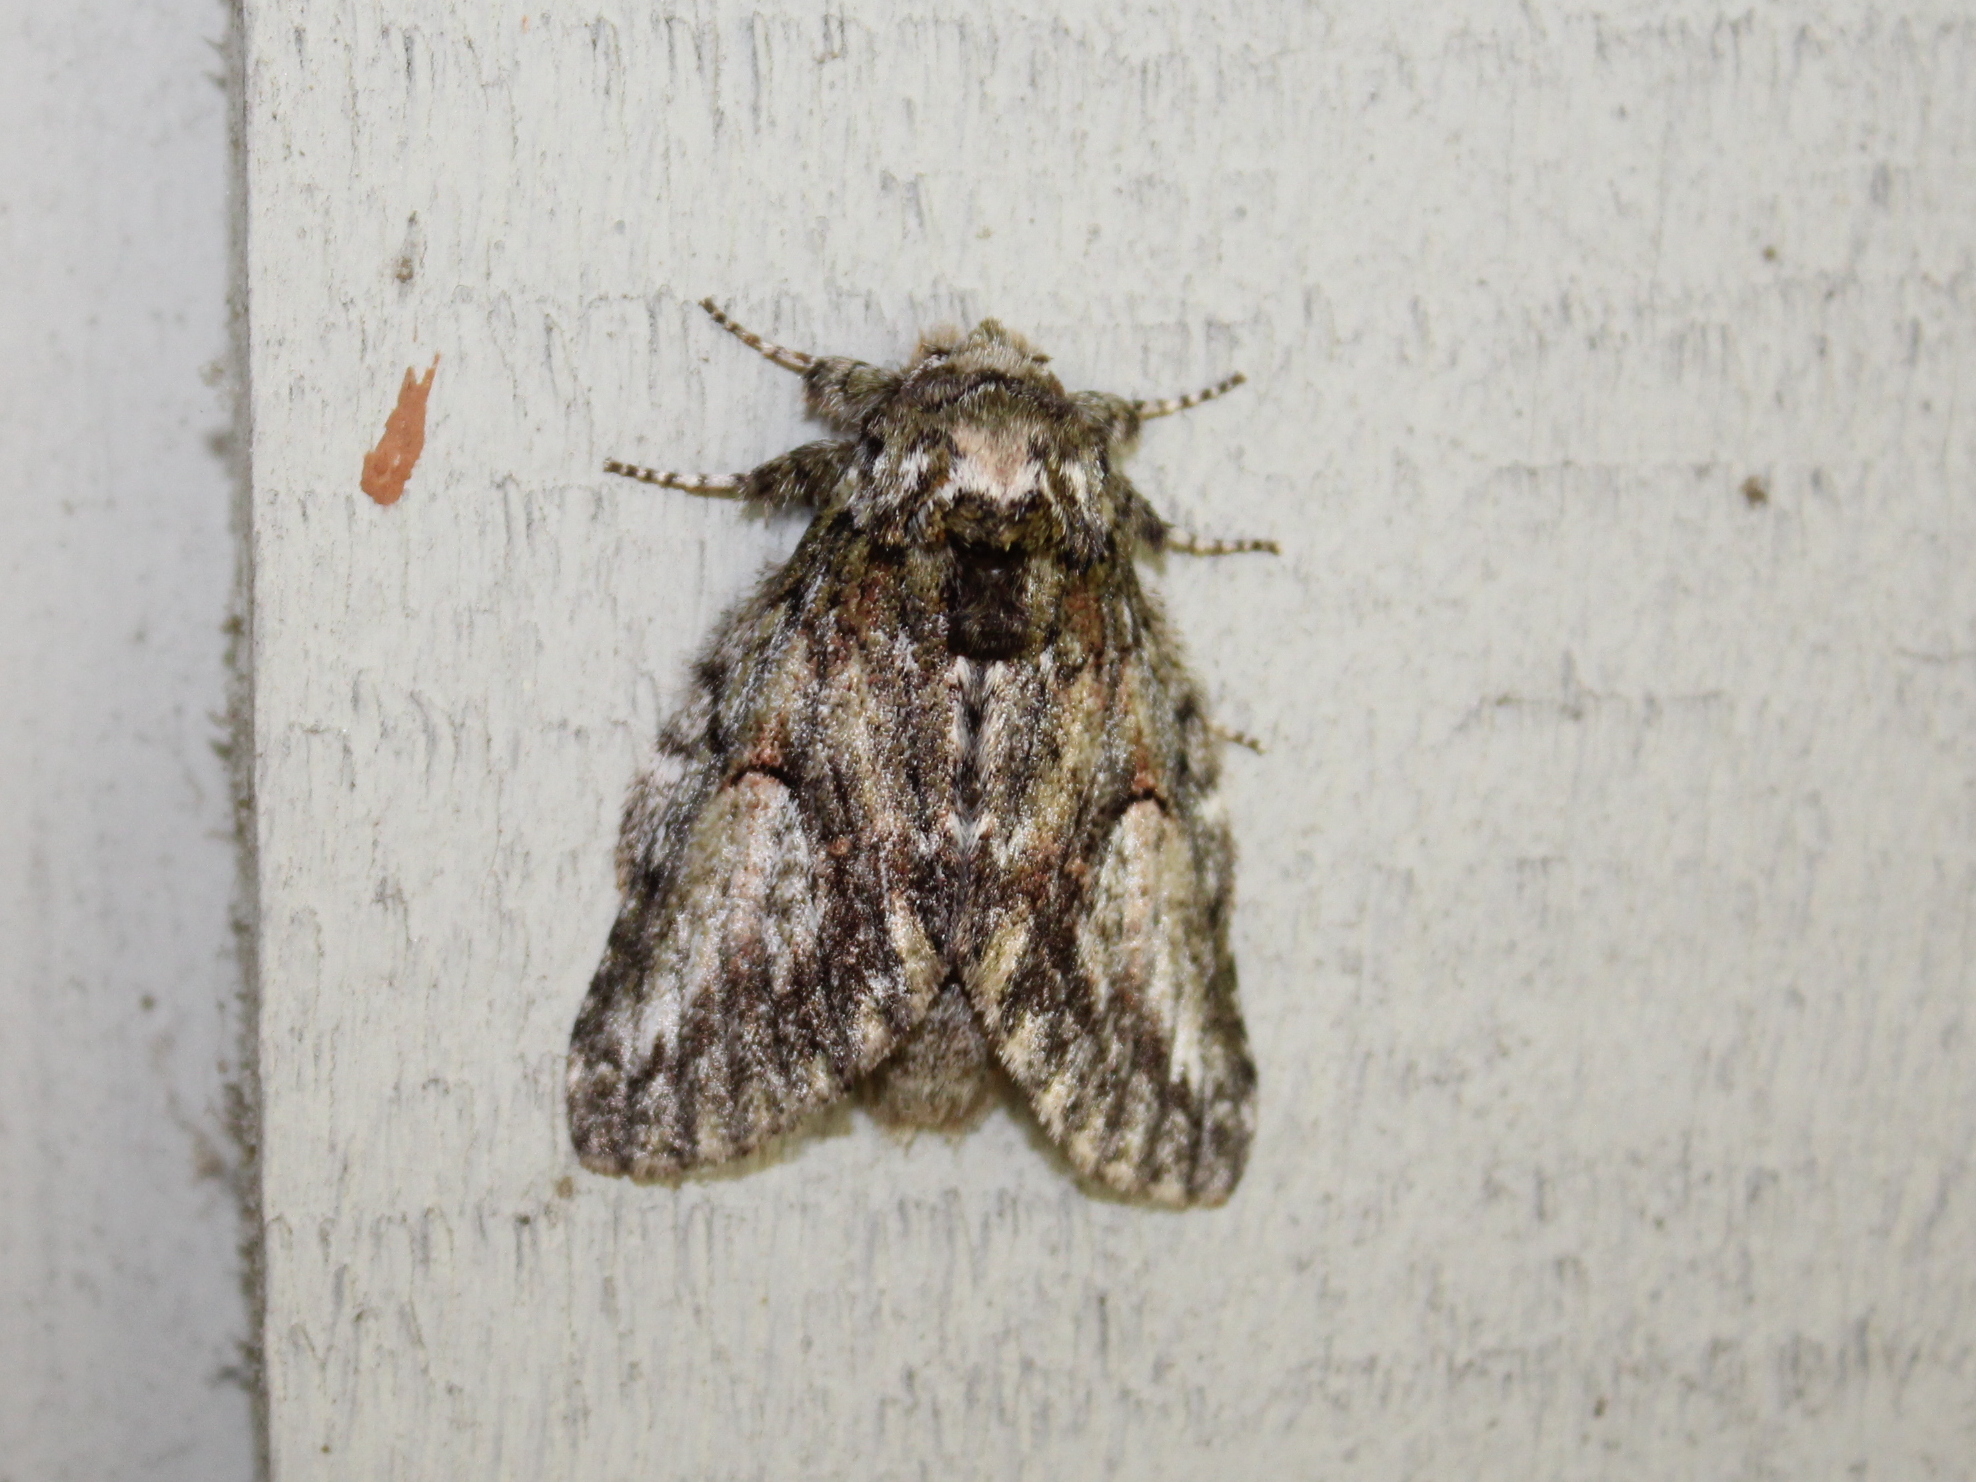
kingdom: Animalia
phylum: Arthropoda
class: Insecta
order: Lepidoptera
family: Notodontidae
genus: Heterocampa
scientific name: Heterocampa
